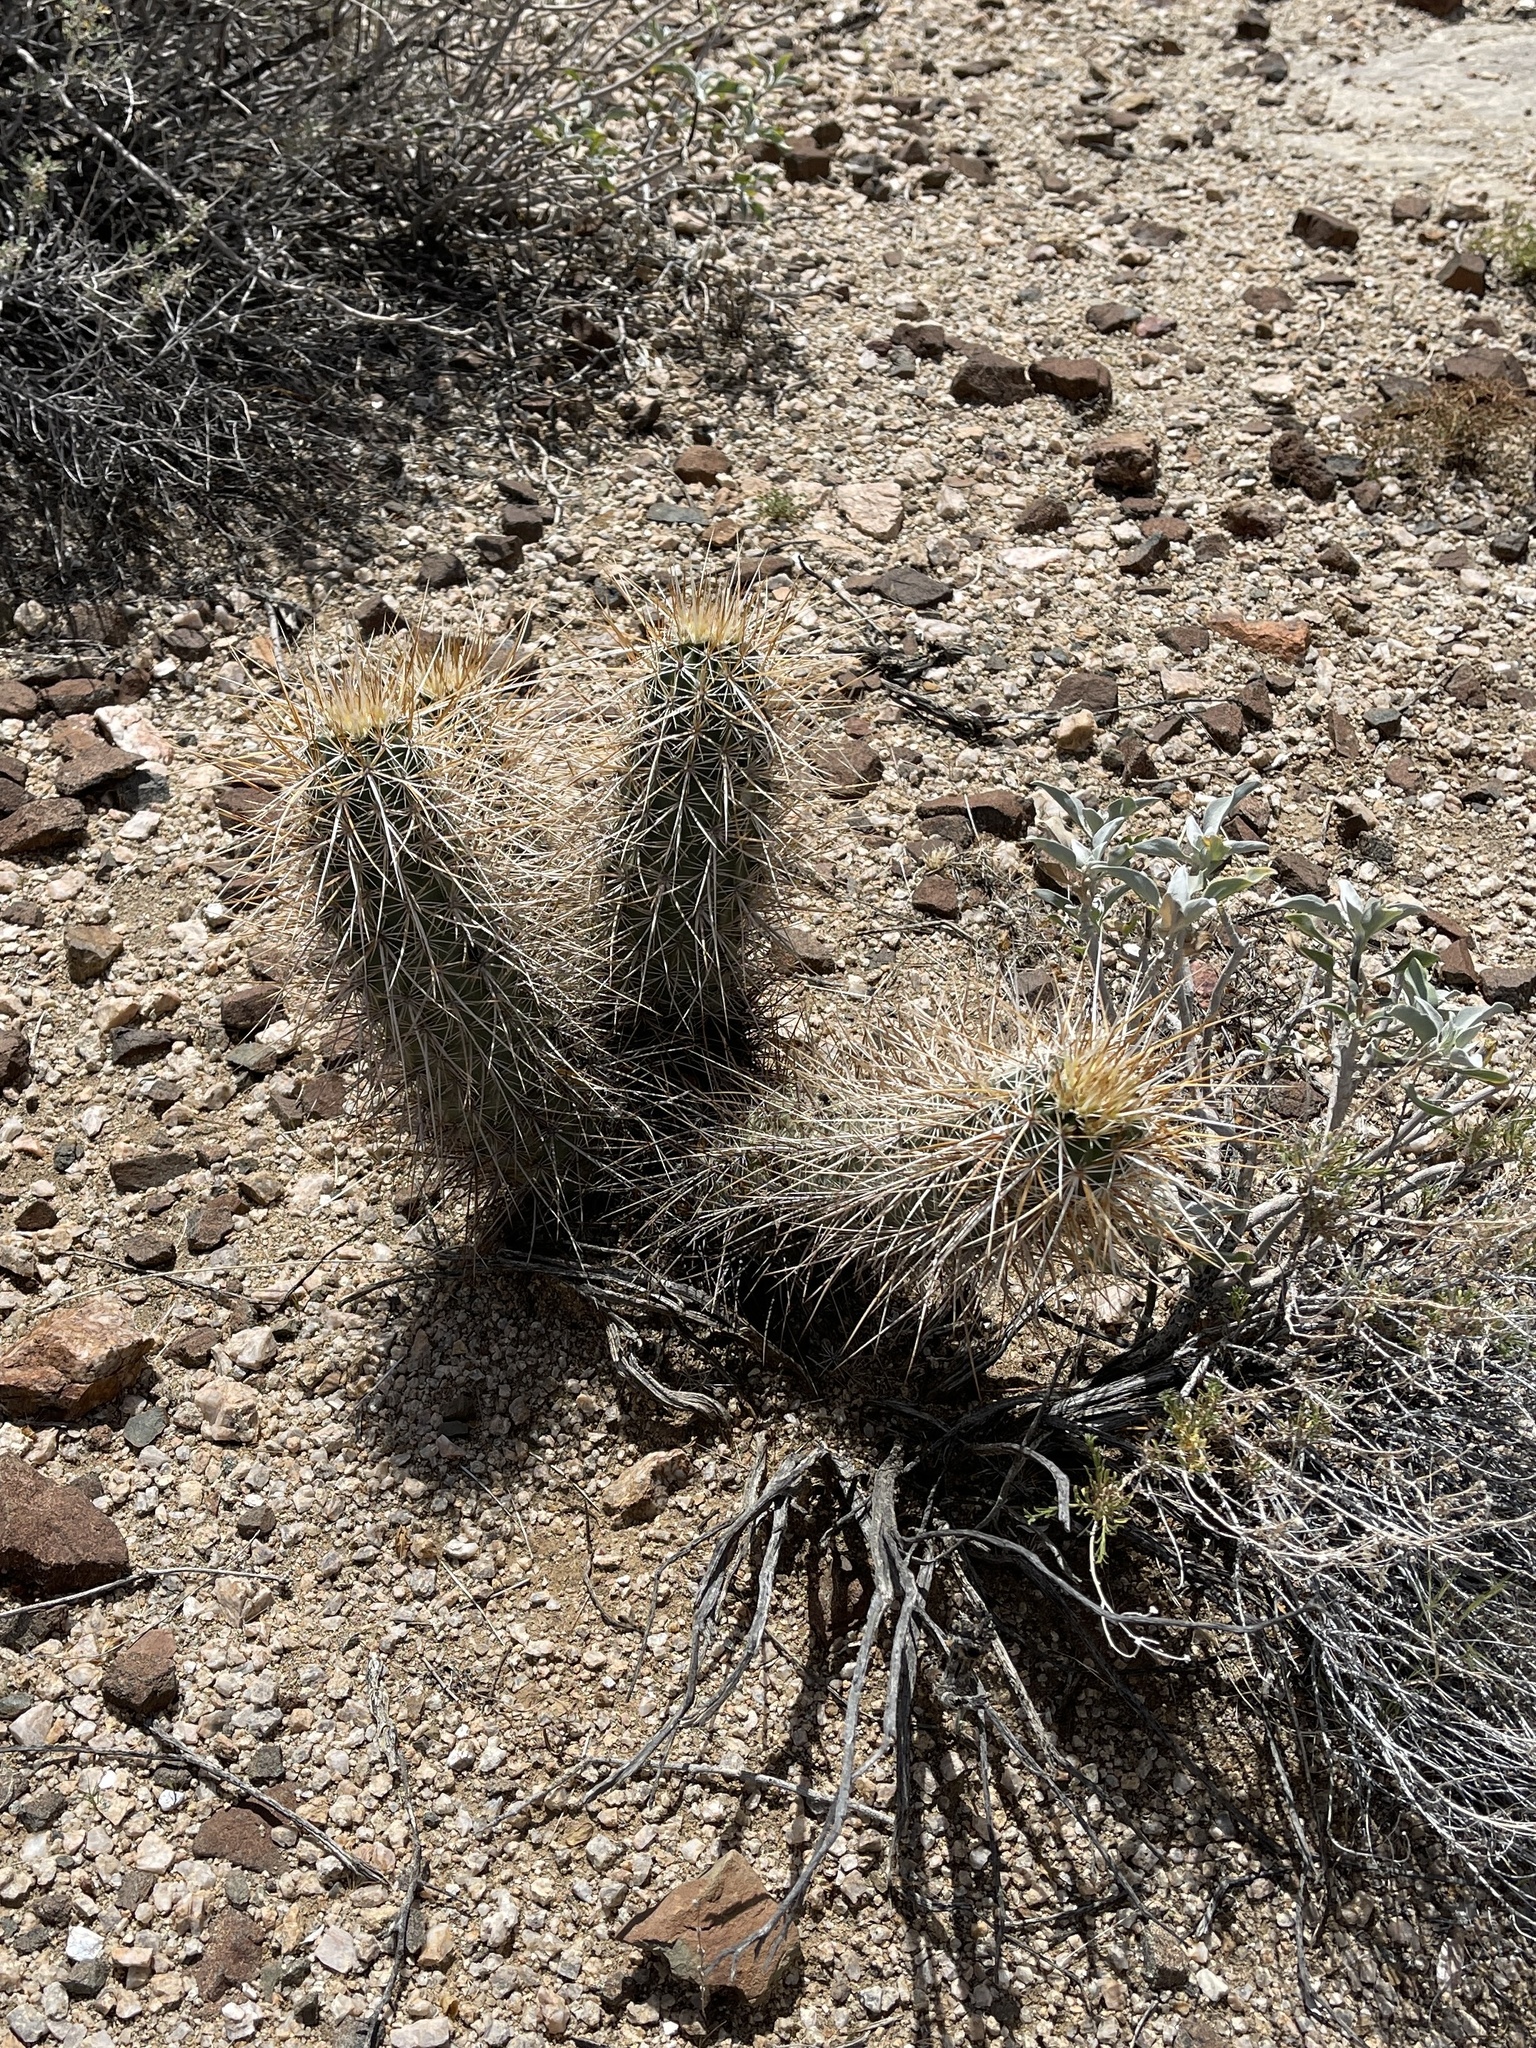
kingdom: Plantae
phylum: Tracheophyta
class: Magnoliopsida
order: Caryophyllales
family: Cactaceae
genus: Echinocereus
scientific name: Echinocereus engelmannii
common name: Engelmann's hedgehog cactus
